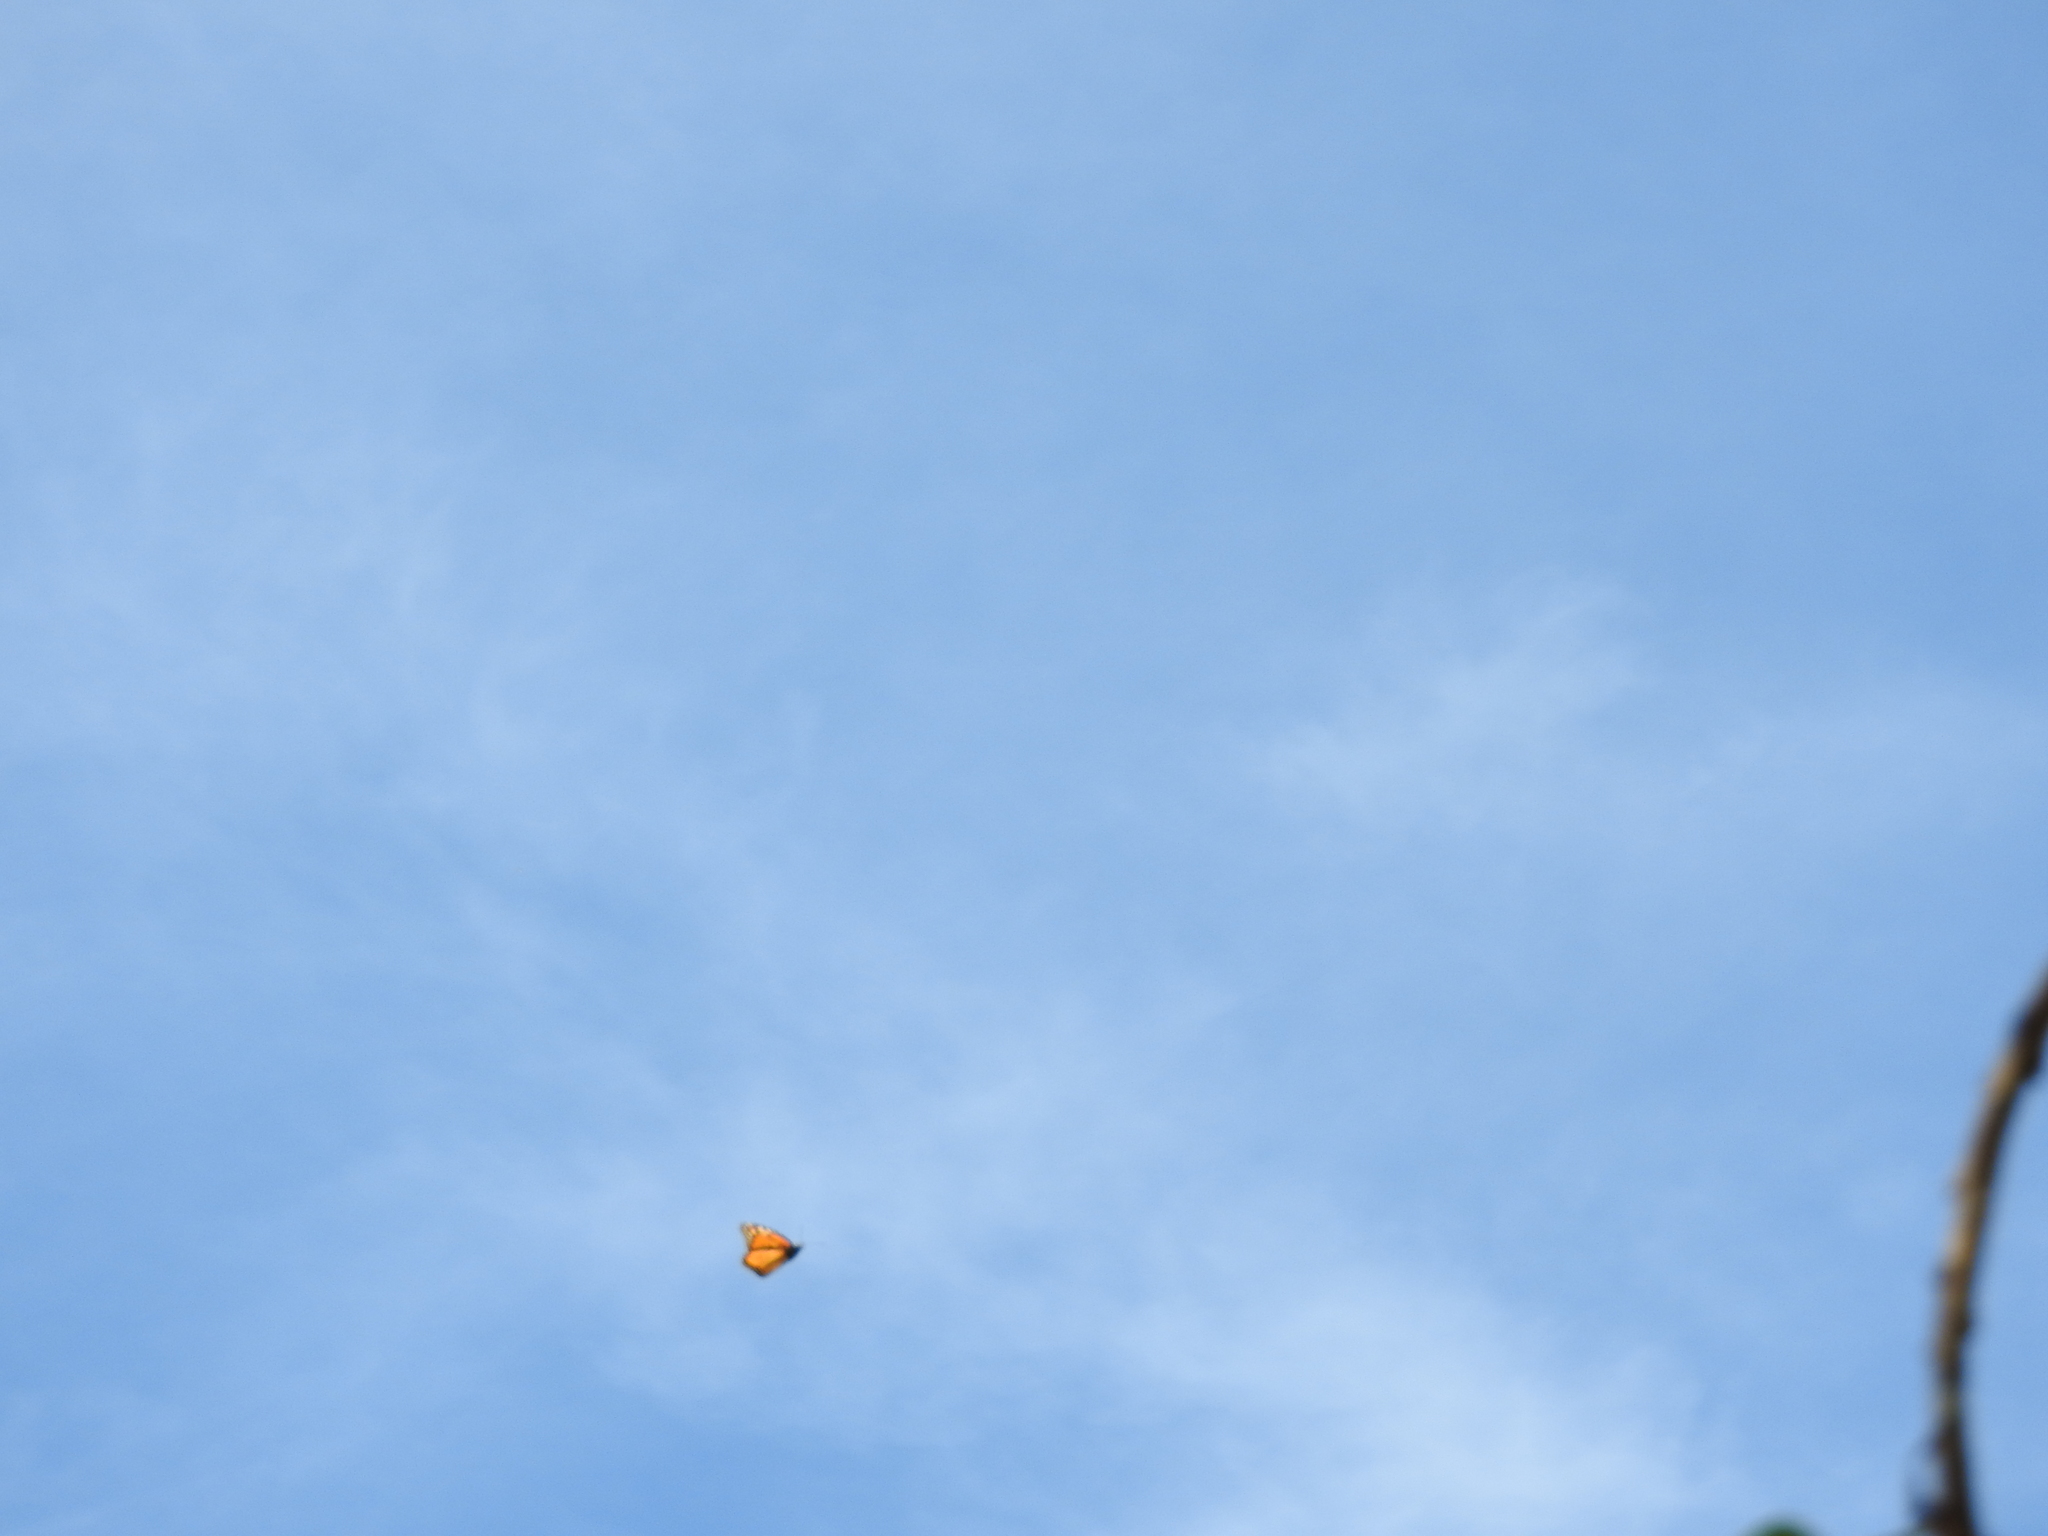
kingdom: Animalia
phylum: Arthropoda
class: Insecta
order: Lepidoptera
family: Nymphalidae
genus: Danaus
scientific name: Danaus plexippus
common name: Monarch
